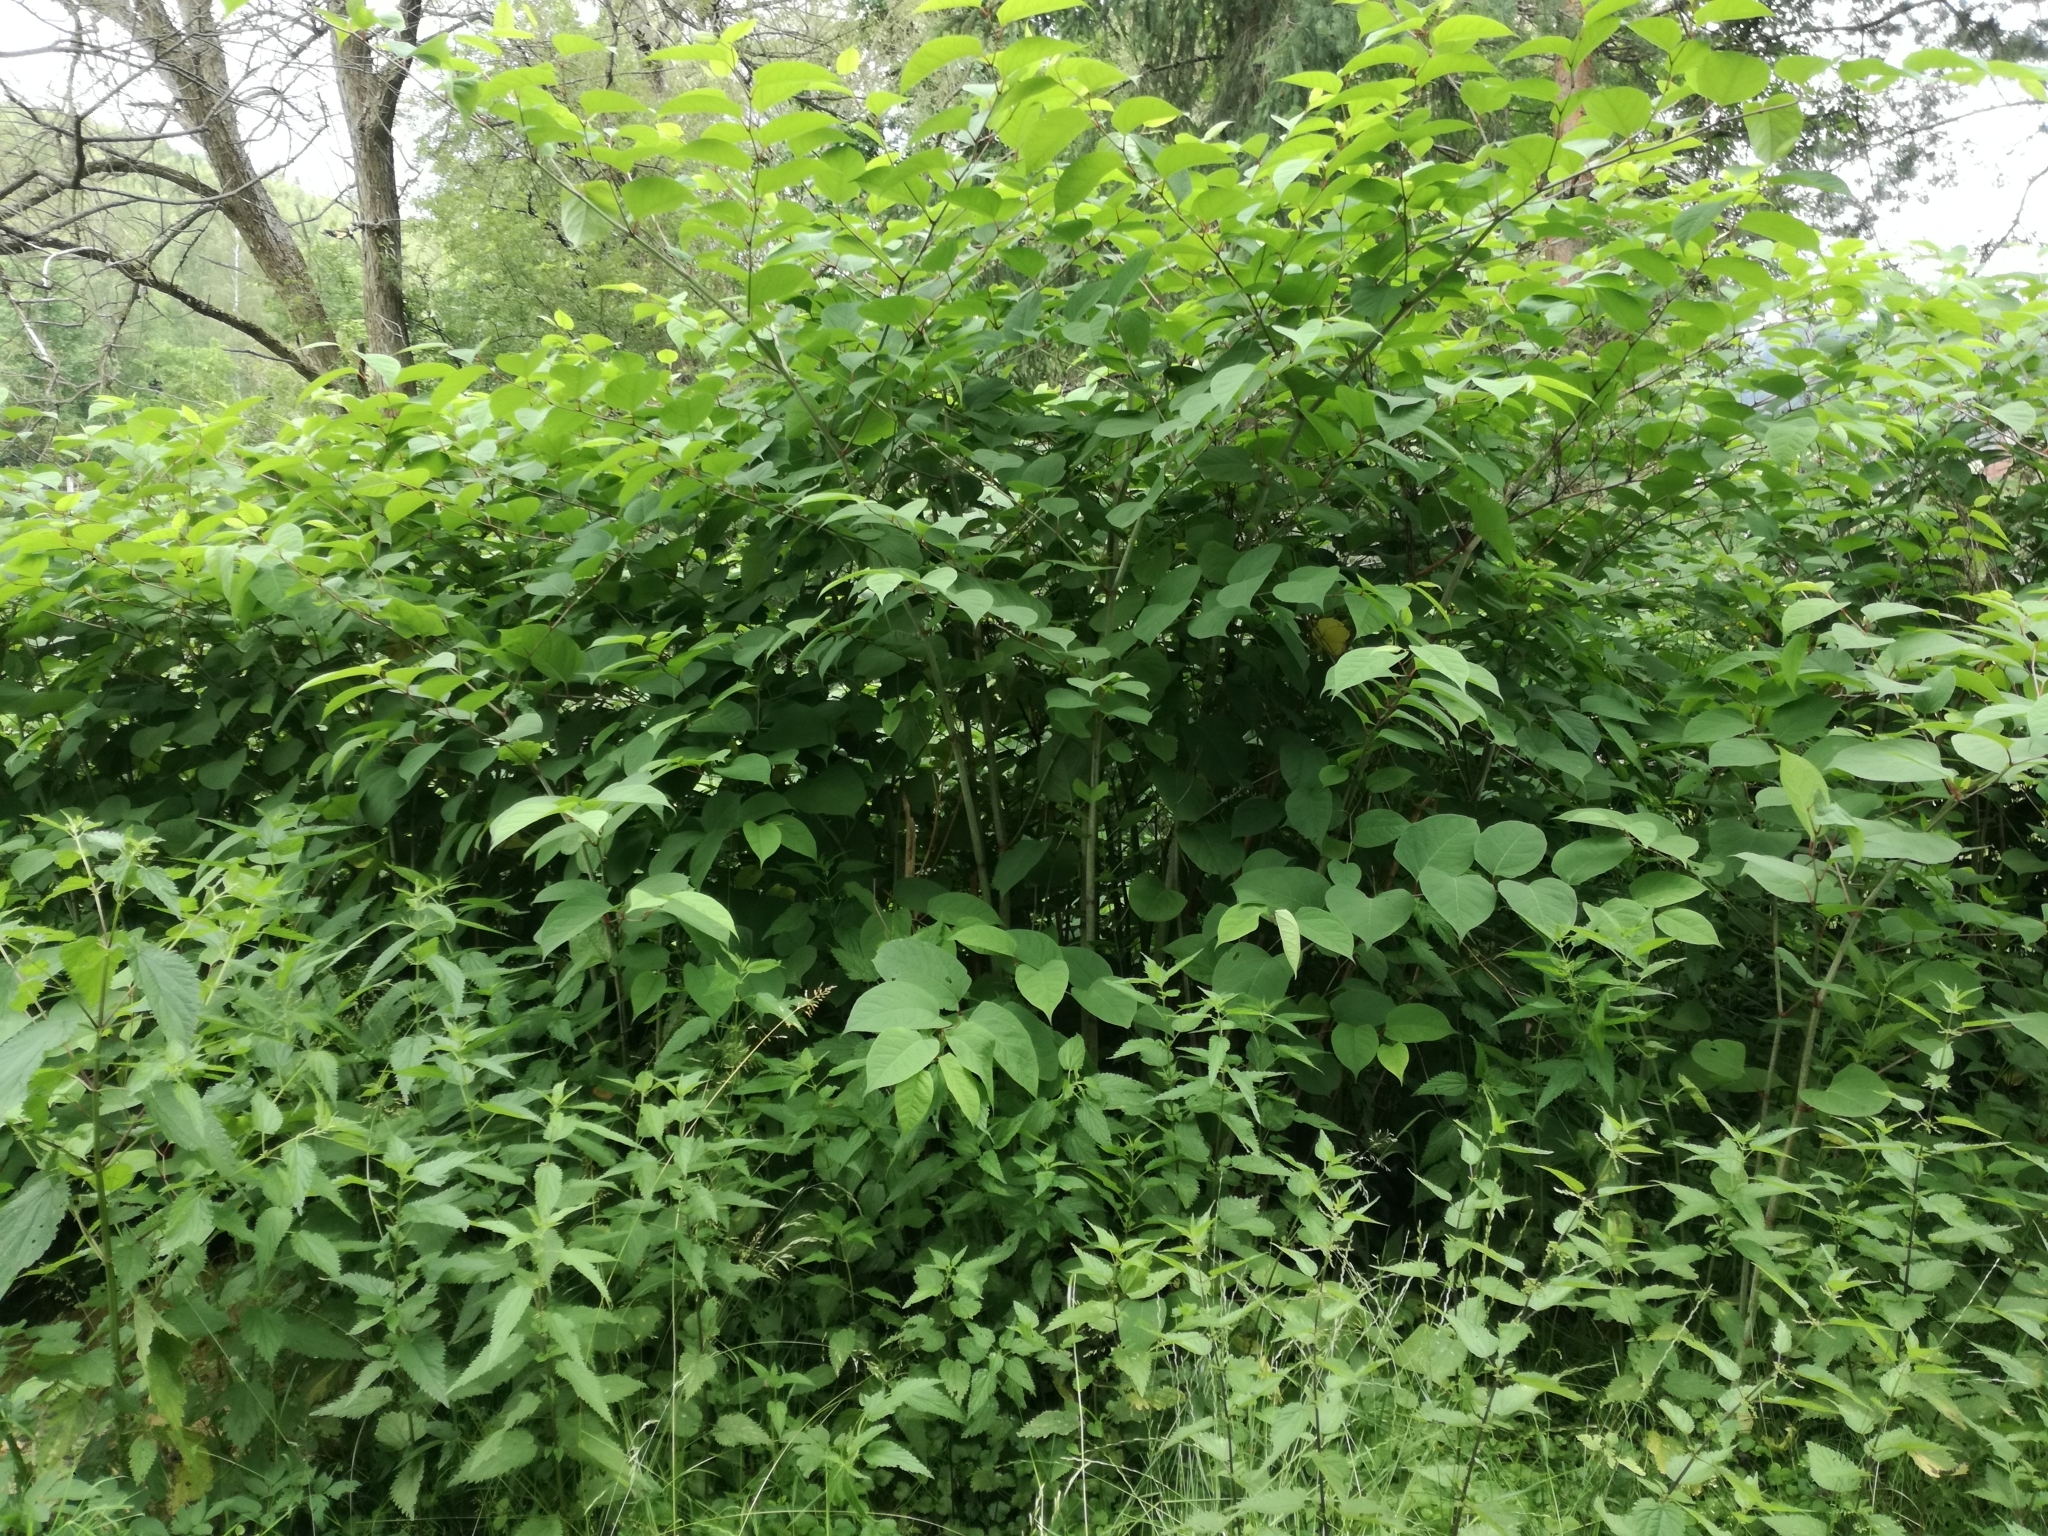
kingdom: Plantae
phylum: Tracheophyta
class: Magnoliopsida
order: Caryophyllales
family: Polygonaceae
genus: Reynoutria
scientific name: Reynoutria japonica
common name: Japanese knotweed
